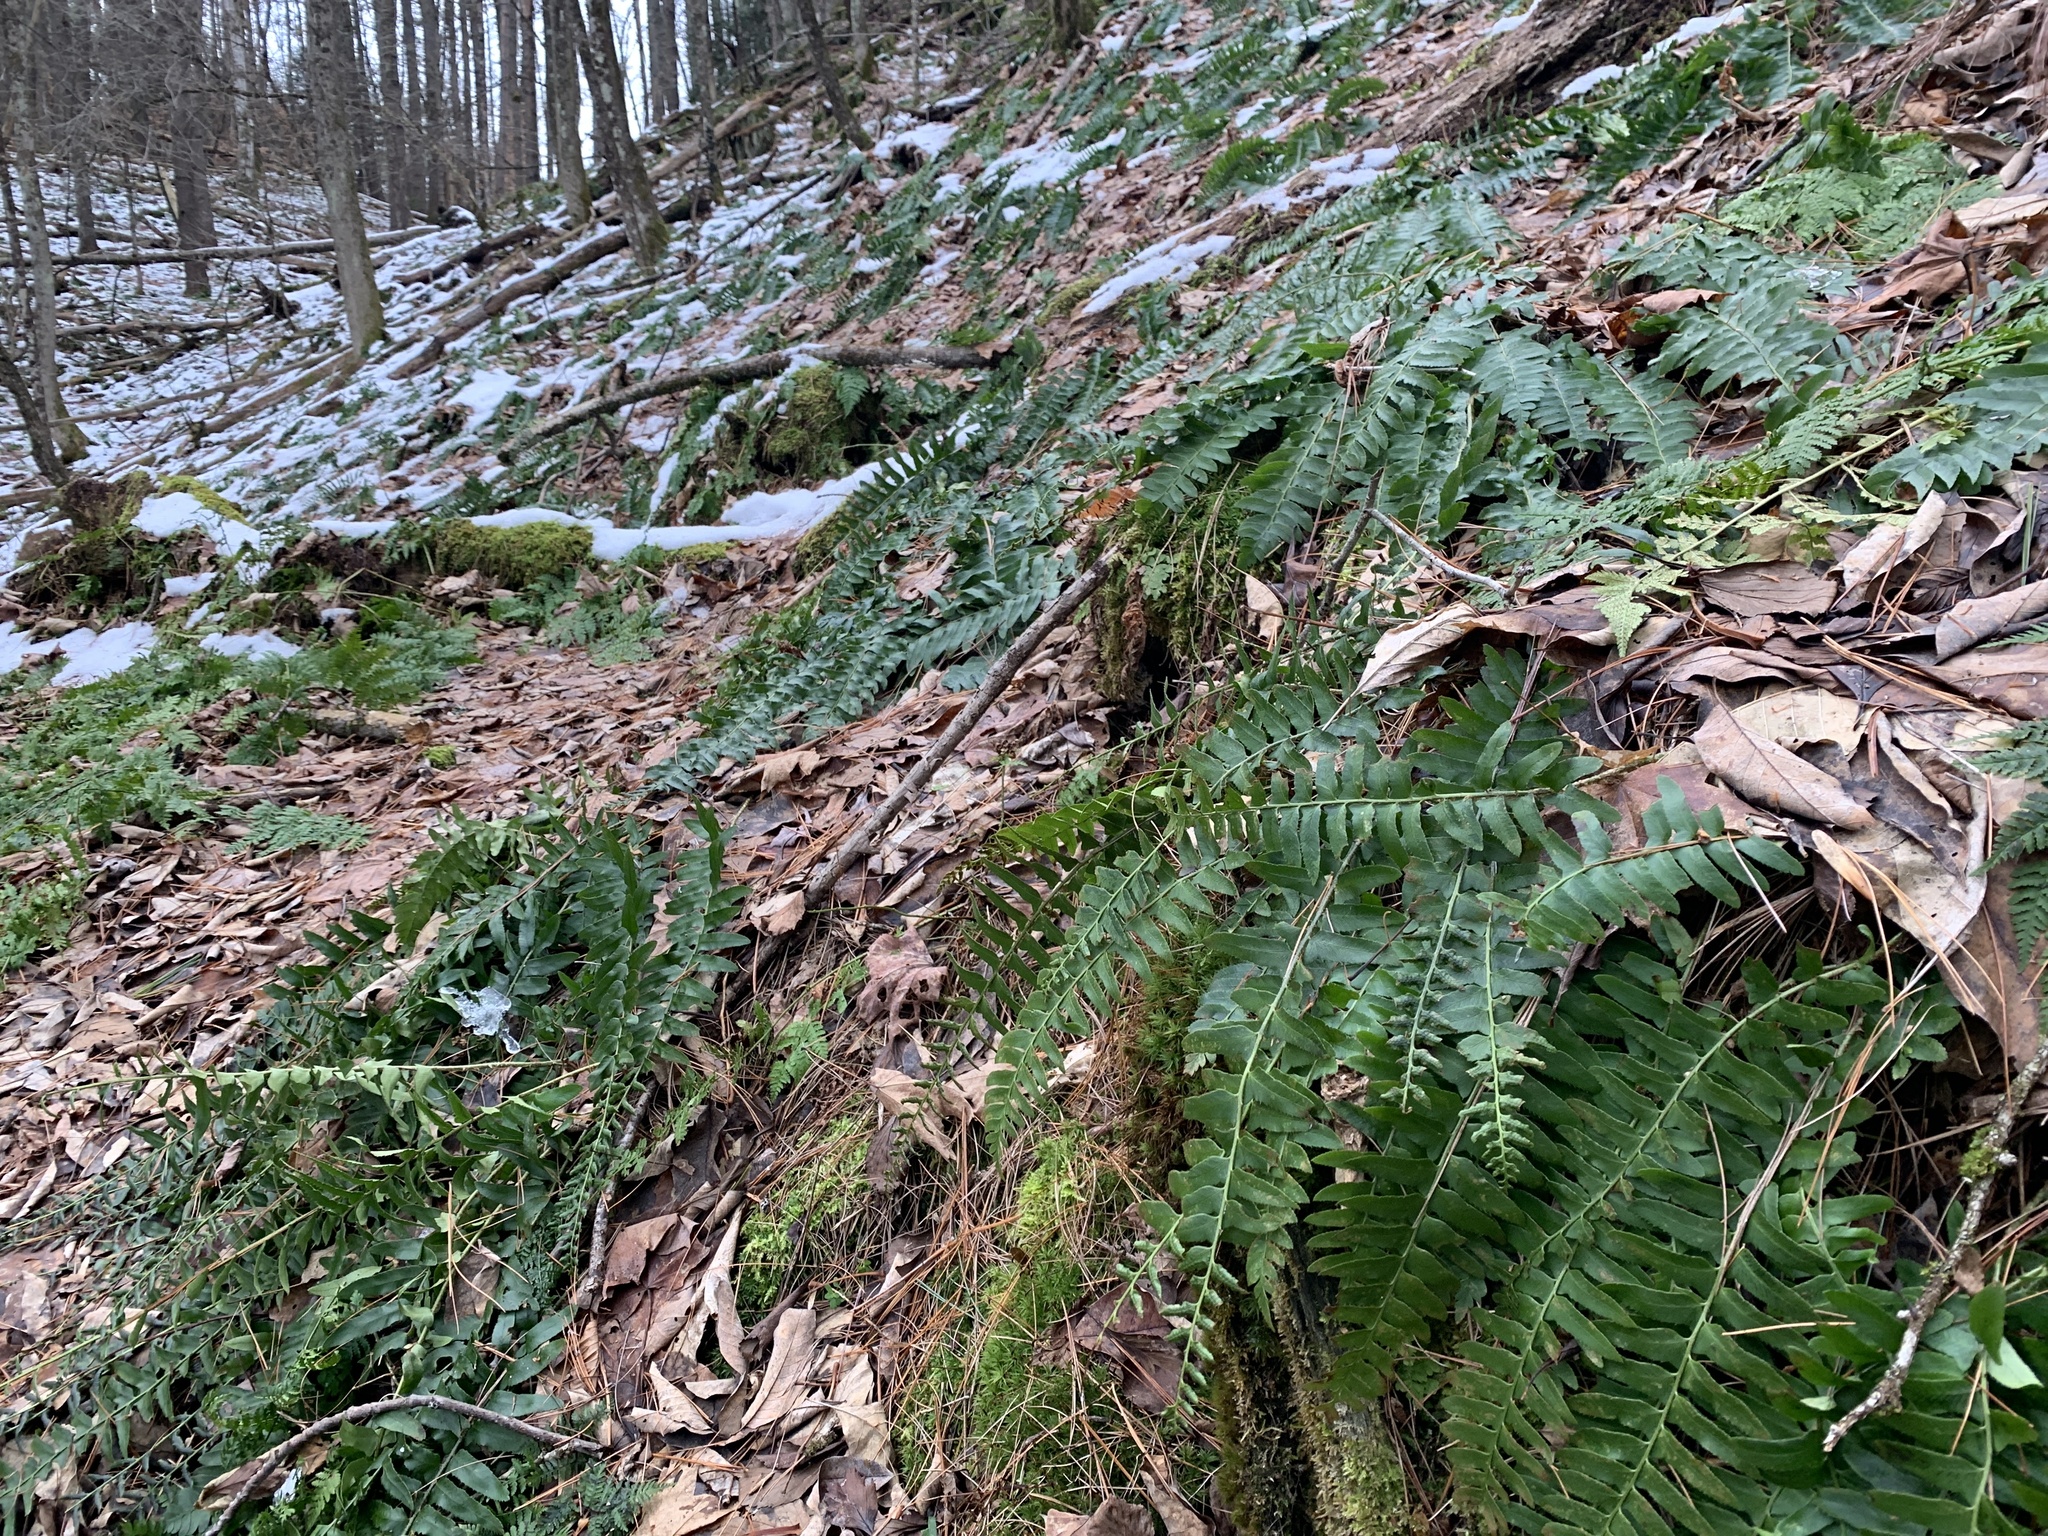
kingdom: Plantae
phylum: Tracheophyta
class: Polypodiopsida
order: Polypodiales
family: Dryopteridaceae
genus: Polystichum
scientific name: Polystichum acrostichoides
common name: Christmas fern
